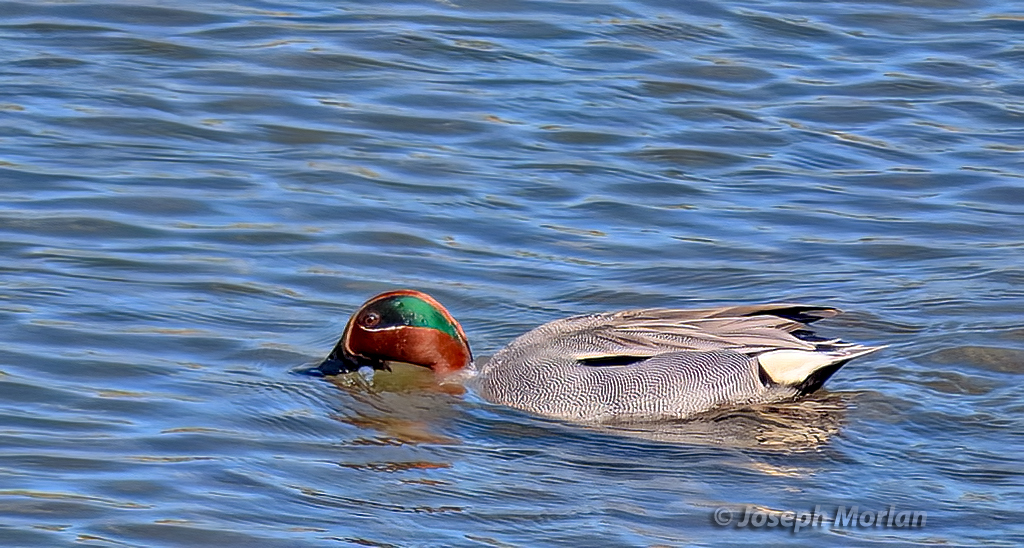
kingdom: Animalia
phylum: Chordata
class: Aves
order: Anseriformes
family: Anatidae
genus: Anas
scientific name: Anas crecca
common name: Eurasian teal
